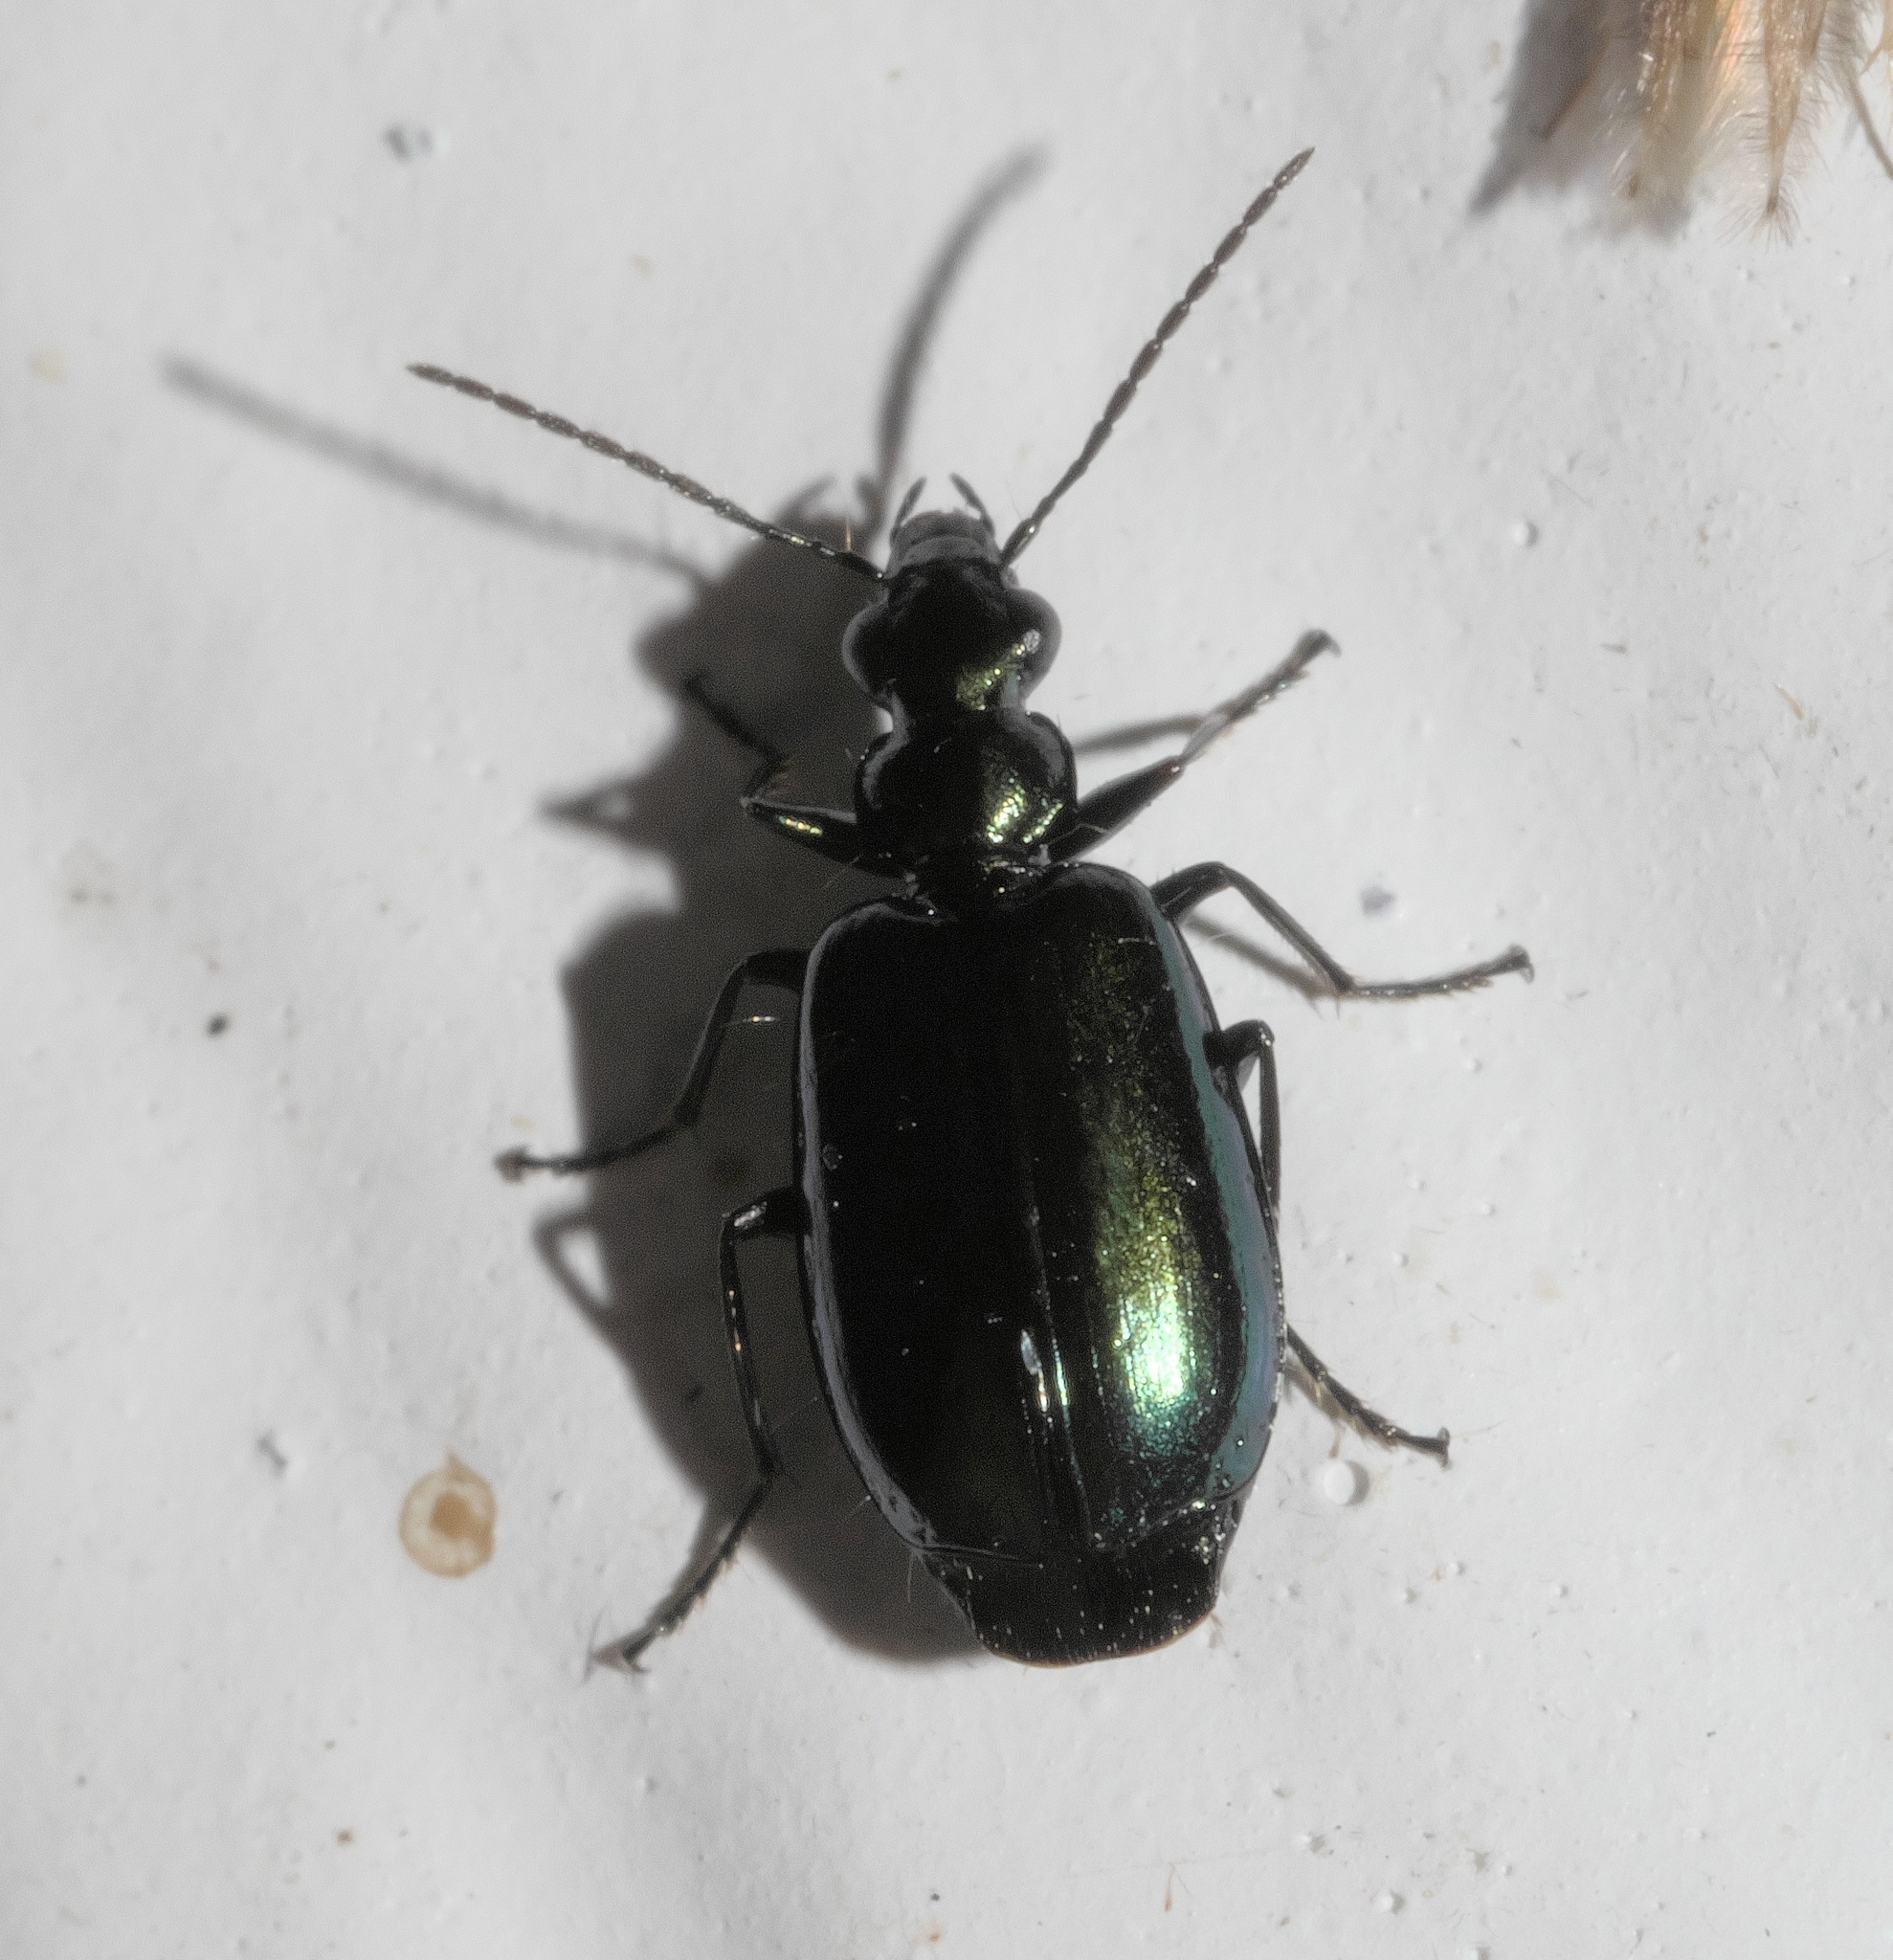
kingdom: Animalia
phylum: Arthropoda
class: Insecta
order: Coleoptera
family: Carabidae
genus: Lebia
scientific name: Lebia viridis
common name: Flower lebia beetle
